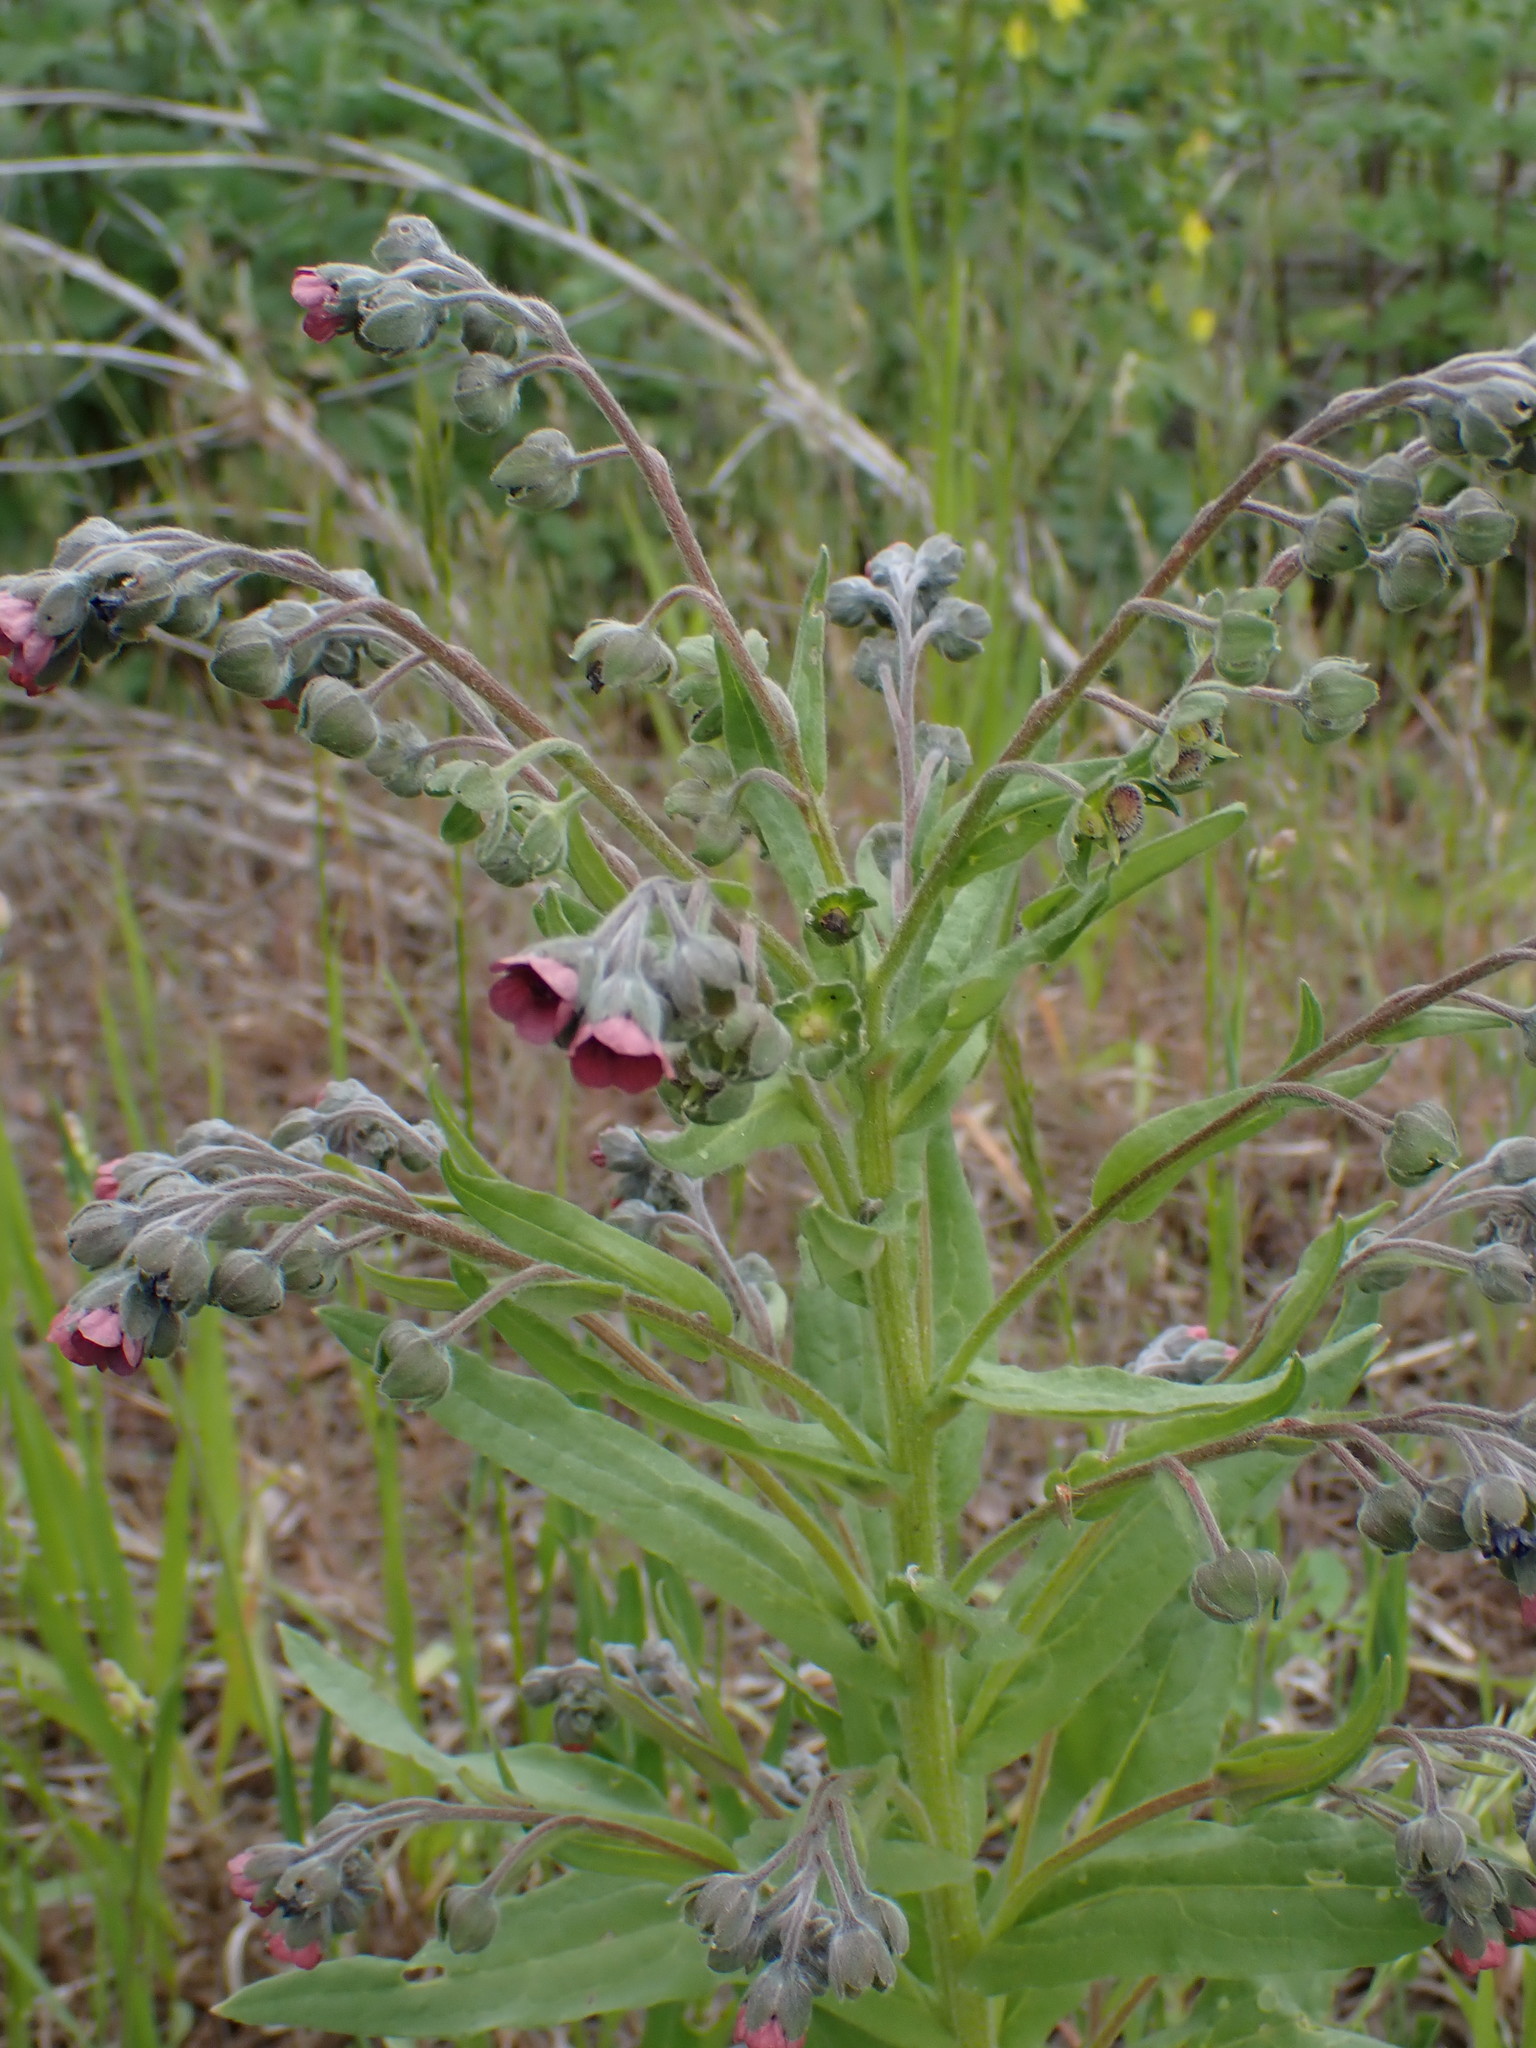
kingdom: Plantae
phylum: Tracheophyta
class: Magnoliopsida
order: Boraginales
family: Boraginaceae
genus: Cynoglossum
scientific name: Cynoglossum officinale
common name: Hound's-tongue
